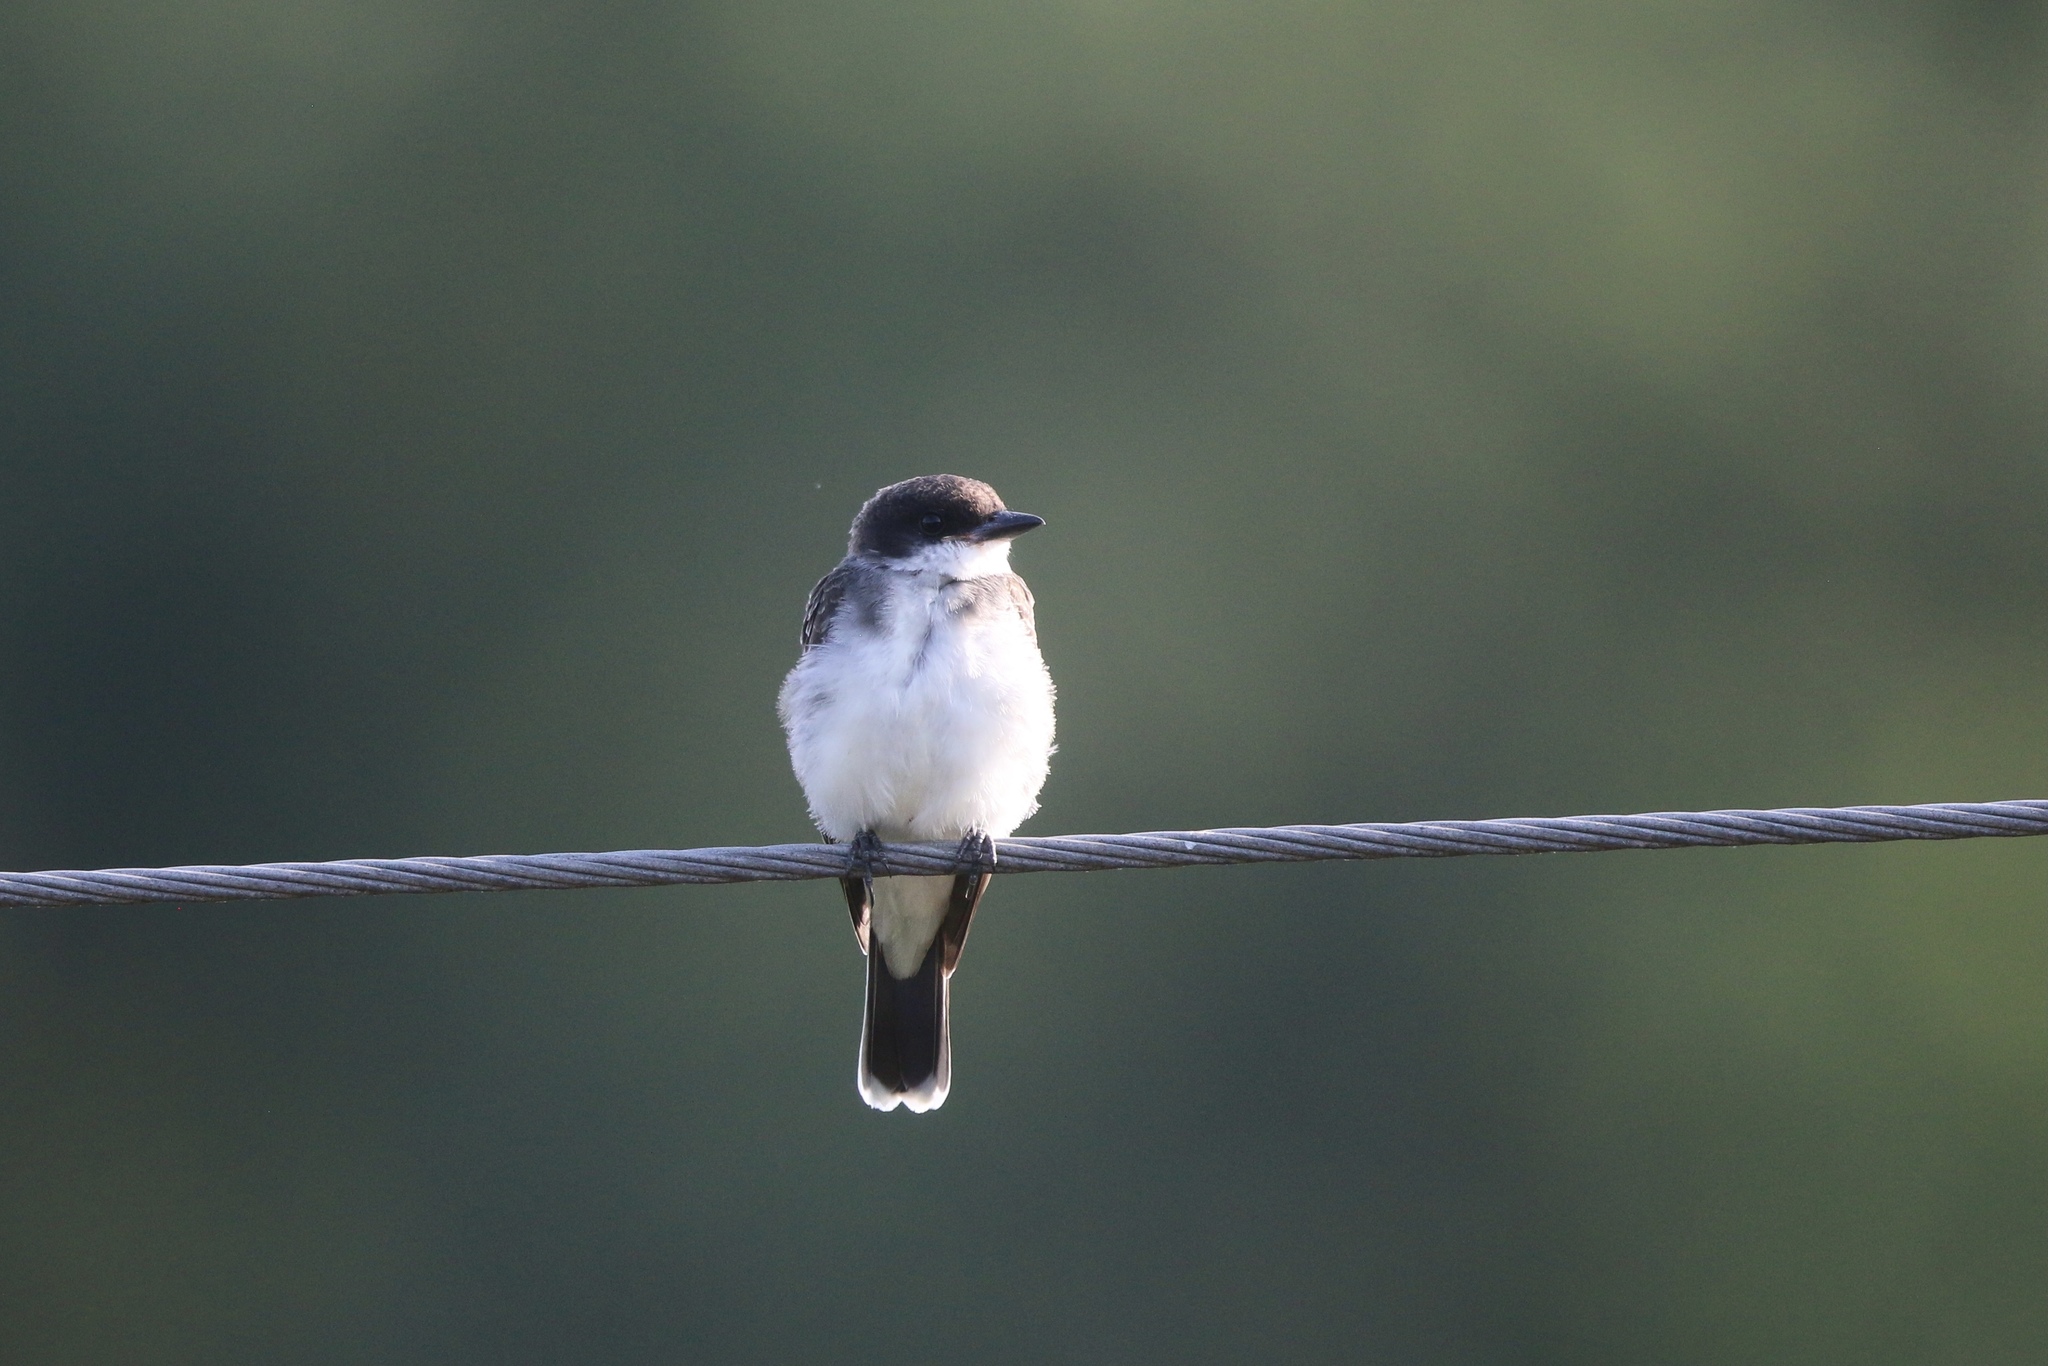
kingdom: Animalia
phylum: Chordata
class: Aves
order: Passeriformes
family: Tyrannidae
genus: Tyrannus
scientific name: Tyrannus tyrannus
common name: Eastern kingbird
